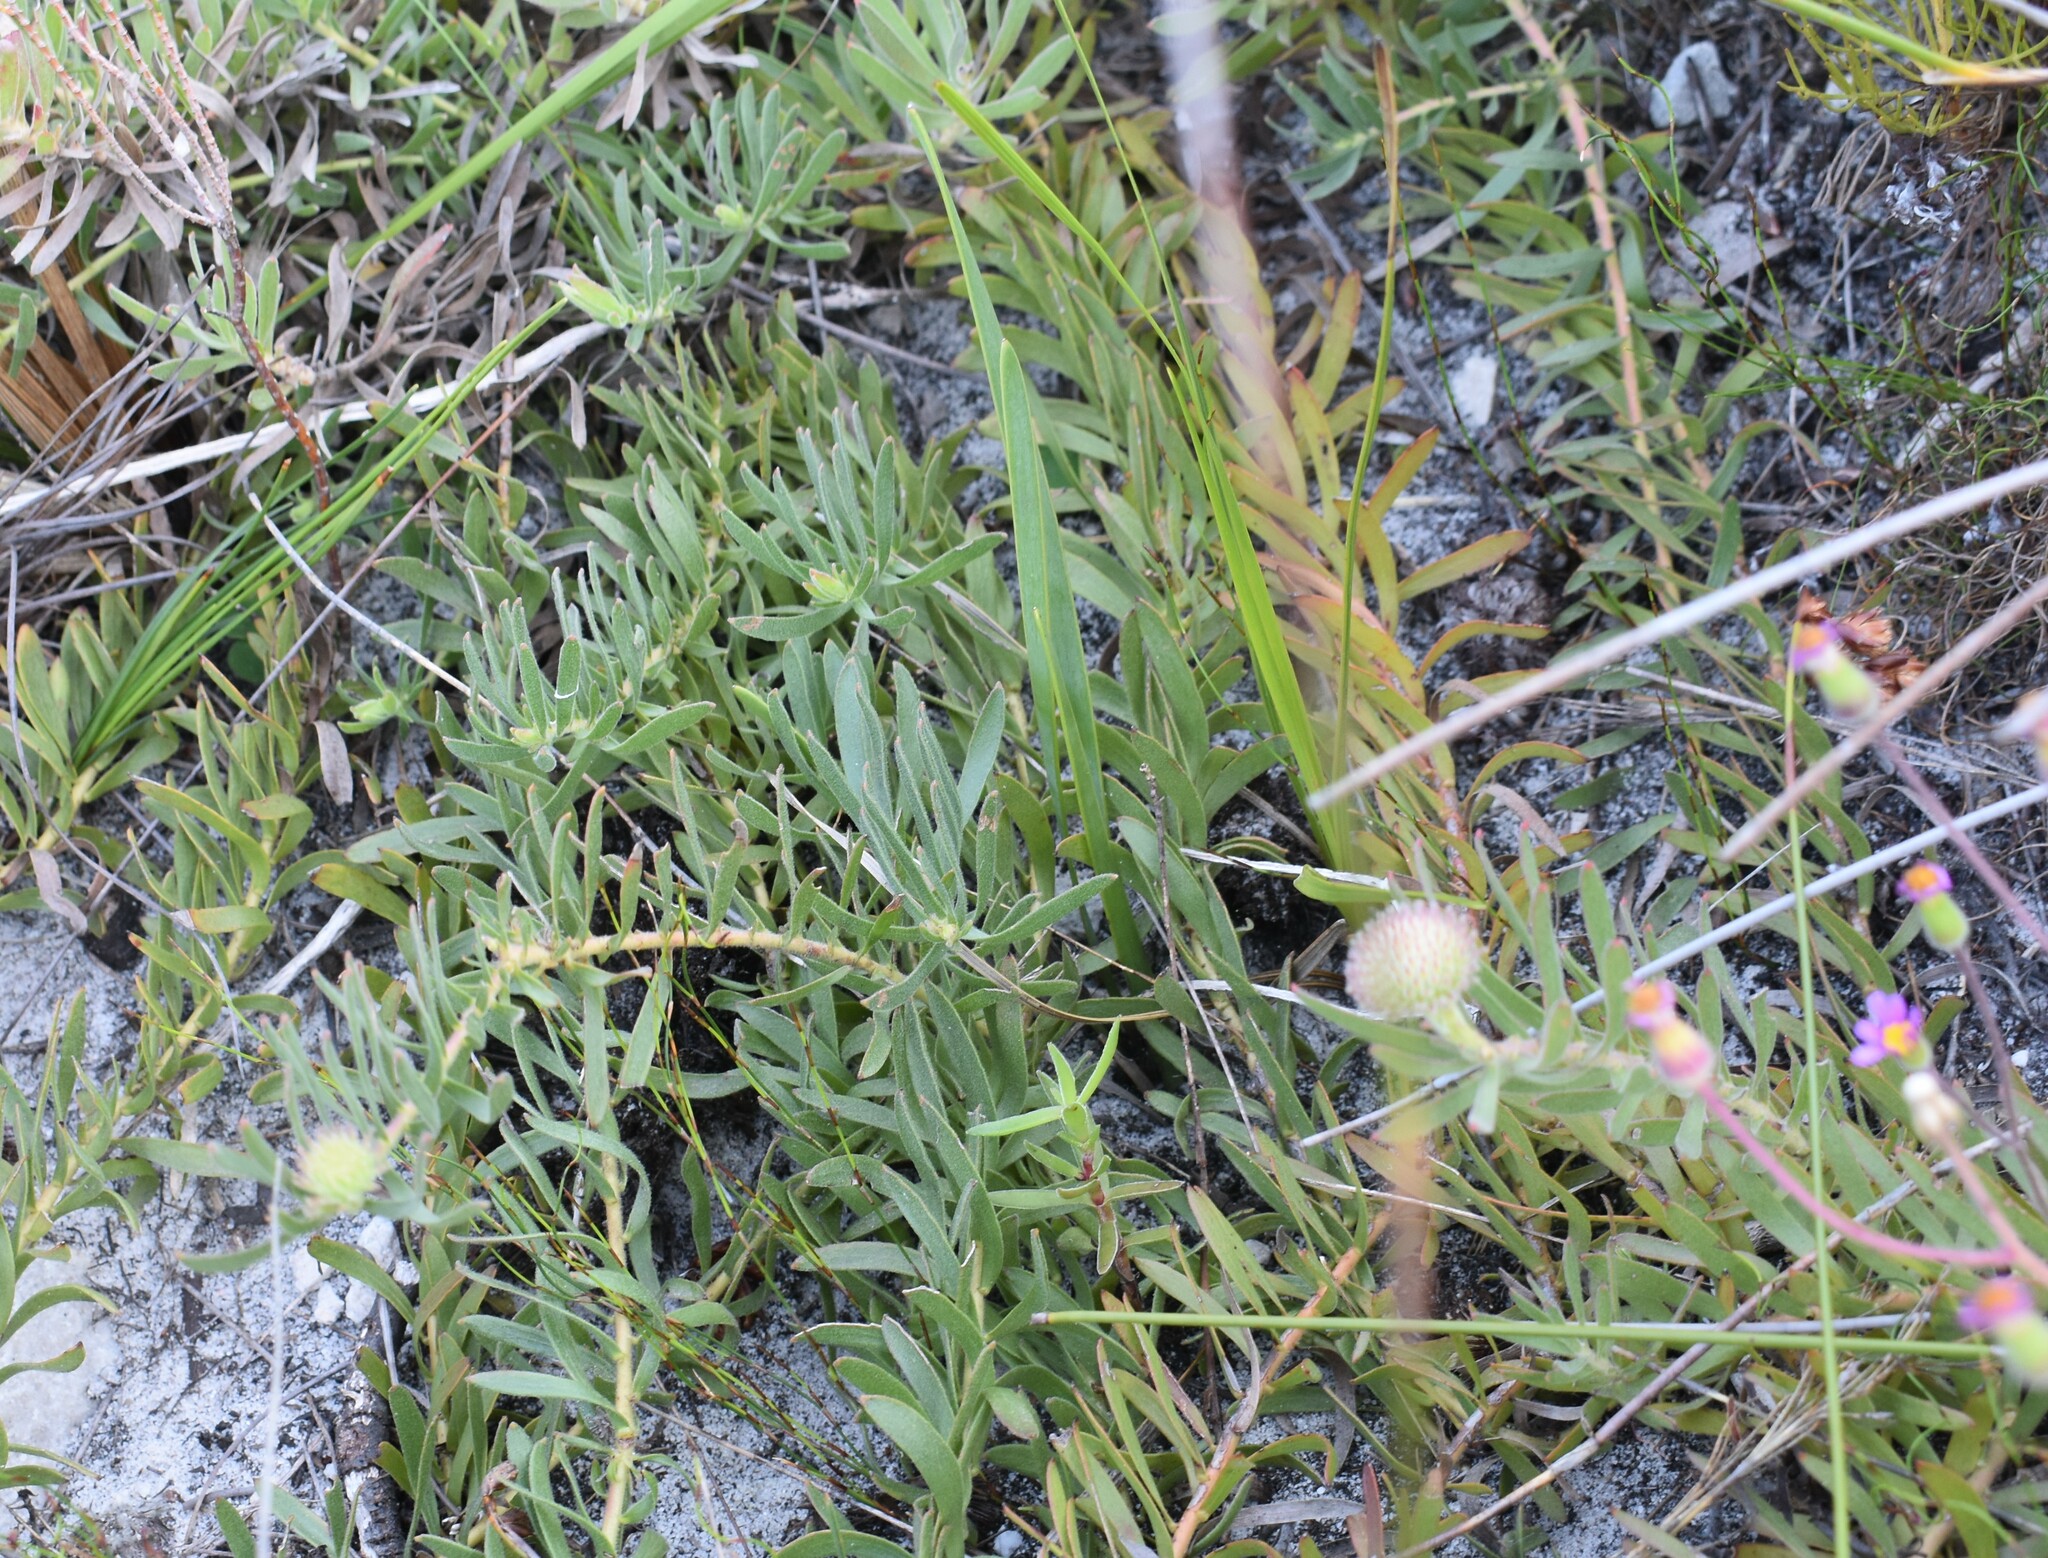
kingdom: Plantae
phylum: Tracheophyta
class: Magnoliopsida
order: Proteales
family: Proteaceae
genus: Leucospermum
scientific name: Leucospermum prostratum
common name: Yellow-trailing pincushion
